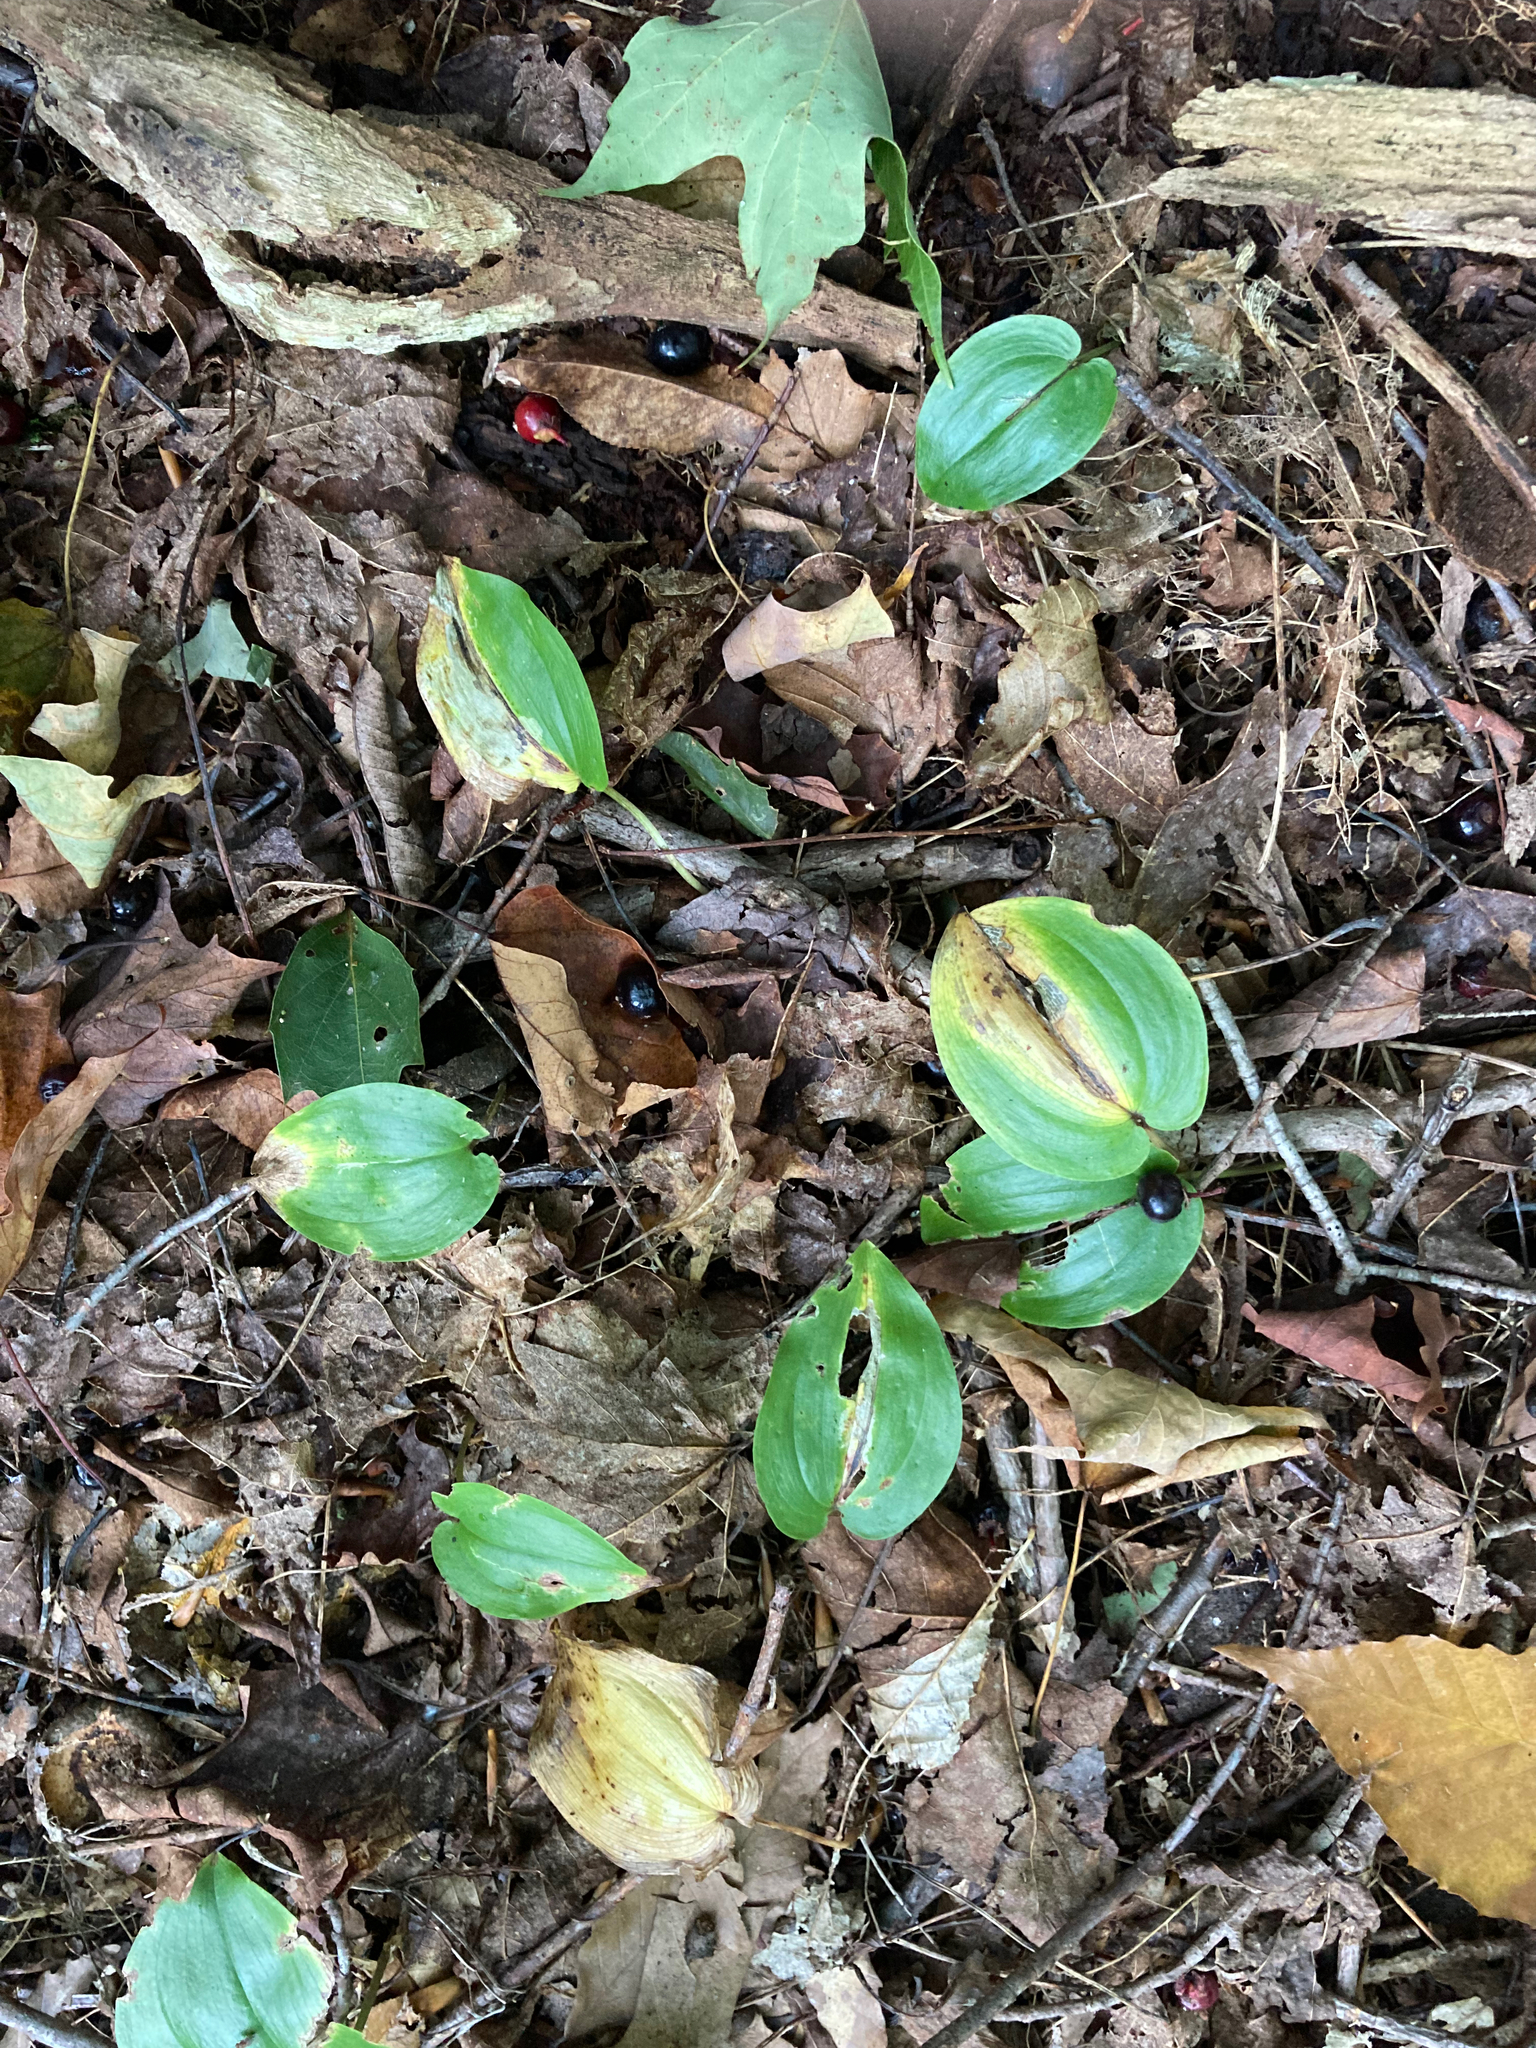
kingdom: Plantae
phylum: Tracheophyta
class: Liliopsida
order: Asparagales
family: Asparagaceae
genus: Maianthemum
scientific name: Maianthemum canadense
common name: False lily-of-the-valley
